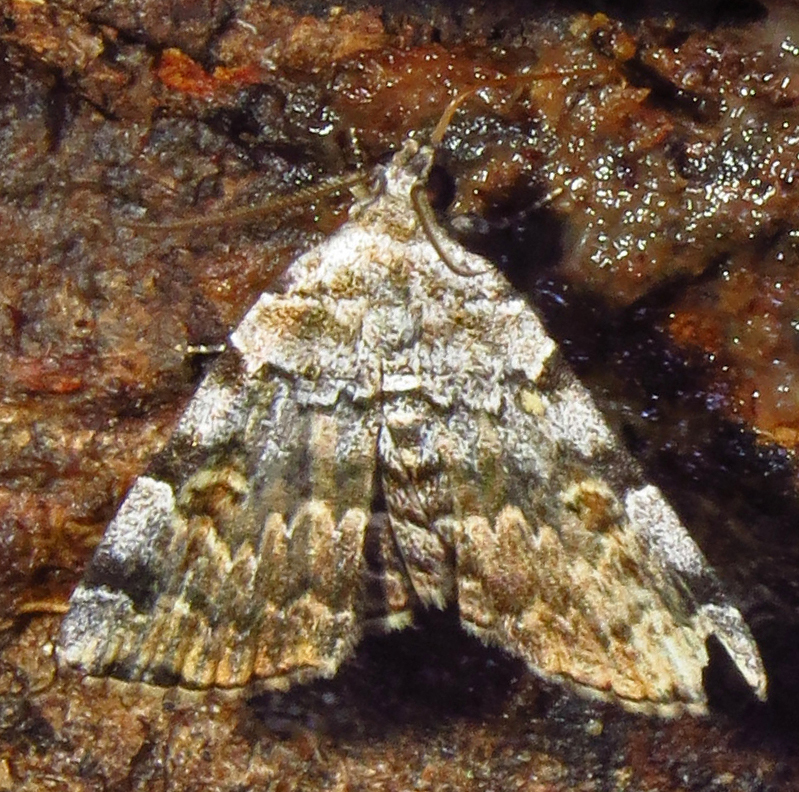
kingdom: Animalia
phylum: Arthropoda
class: Insecta
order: Lepidoptera
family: Erebidae
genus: Idia
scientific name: Idia americalis
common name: American idia moth
